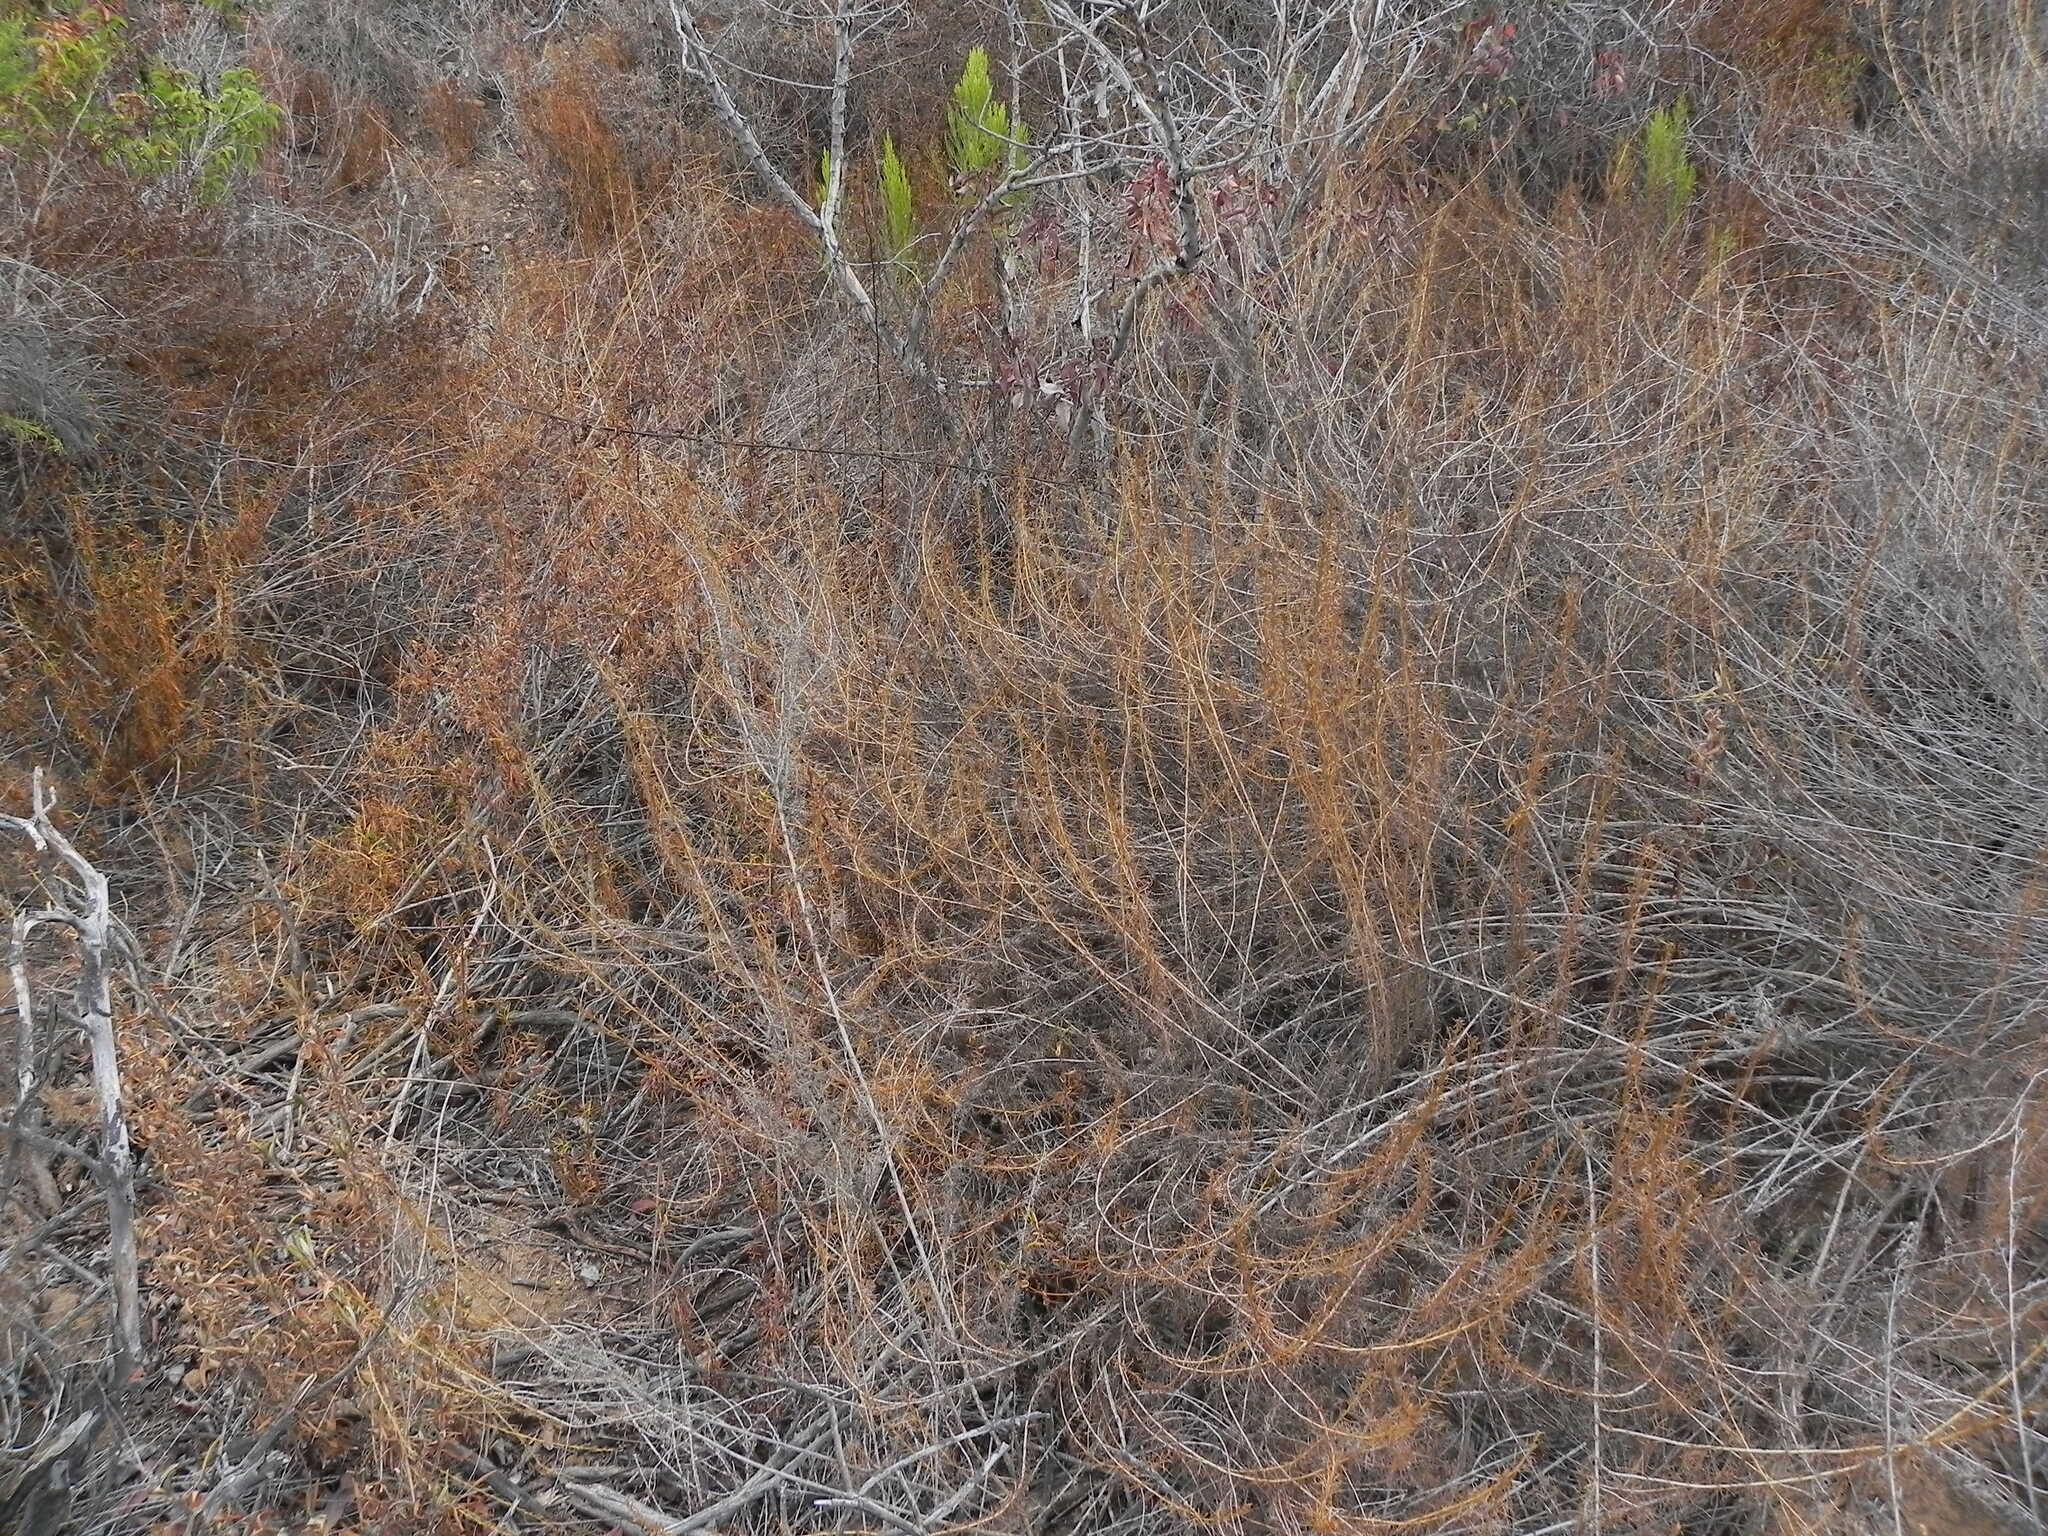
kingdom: Plantae
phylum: Tracheophyta
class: Magnoliopsida
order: Asterales
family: Asteraceae
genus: Artemisia
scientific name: Artemisia californica
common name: California sagebrush
